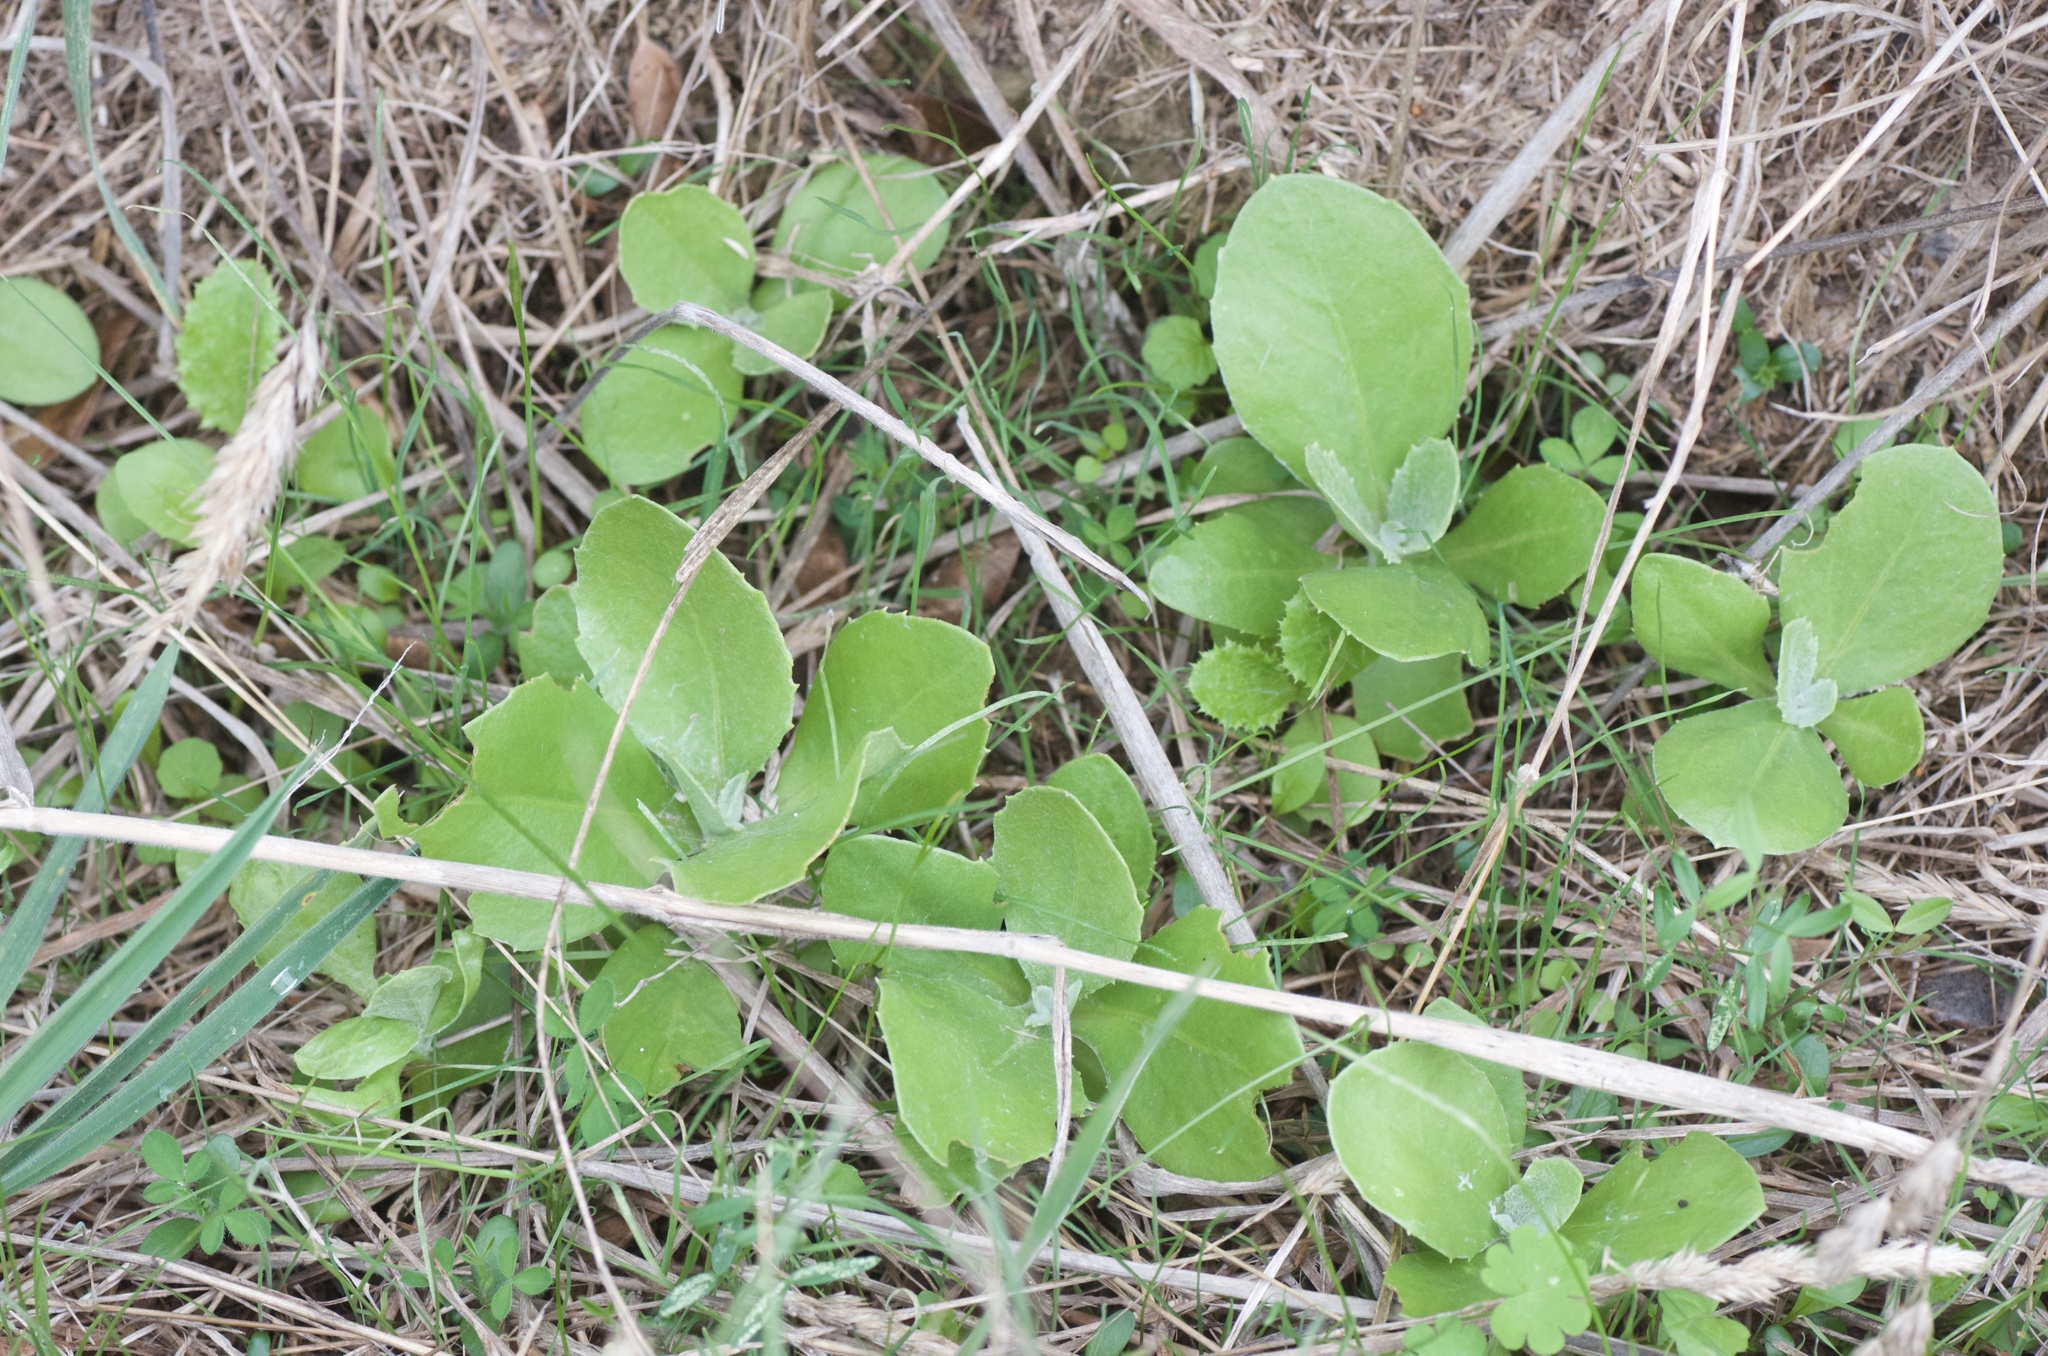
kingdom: Plantae
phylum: Tracheophyta
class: Magnoliopsida
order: Asterales
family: Asteraceae
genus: Osteospermum
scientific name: Osteospermum moniliferum
